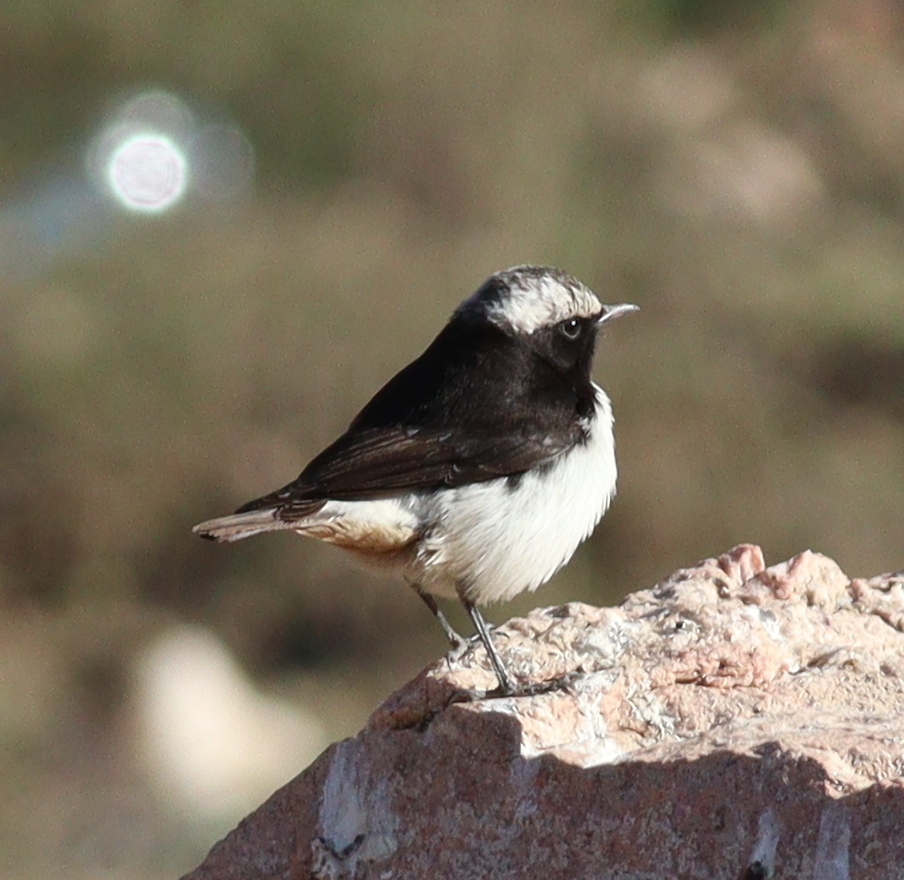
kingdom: Animalia
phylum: Chordata
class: Aves
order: Passeriformes
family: Muscicapidae
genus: Oenanthe
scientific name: Oenanthe lugentoides
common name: Arabian wheatear
